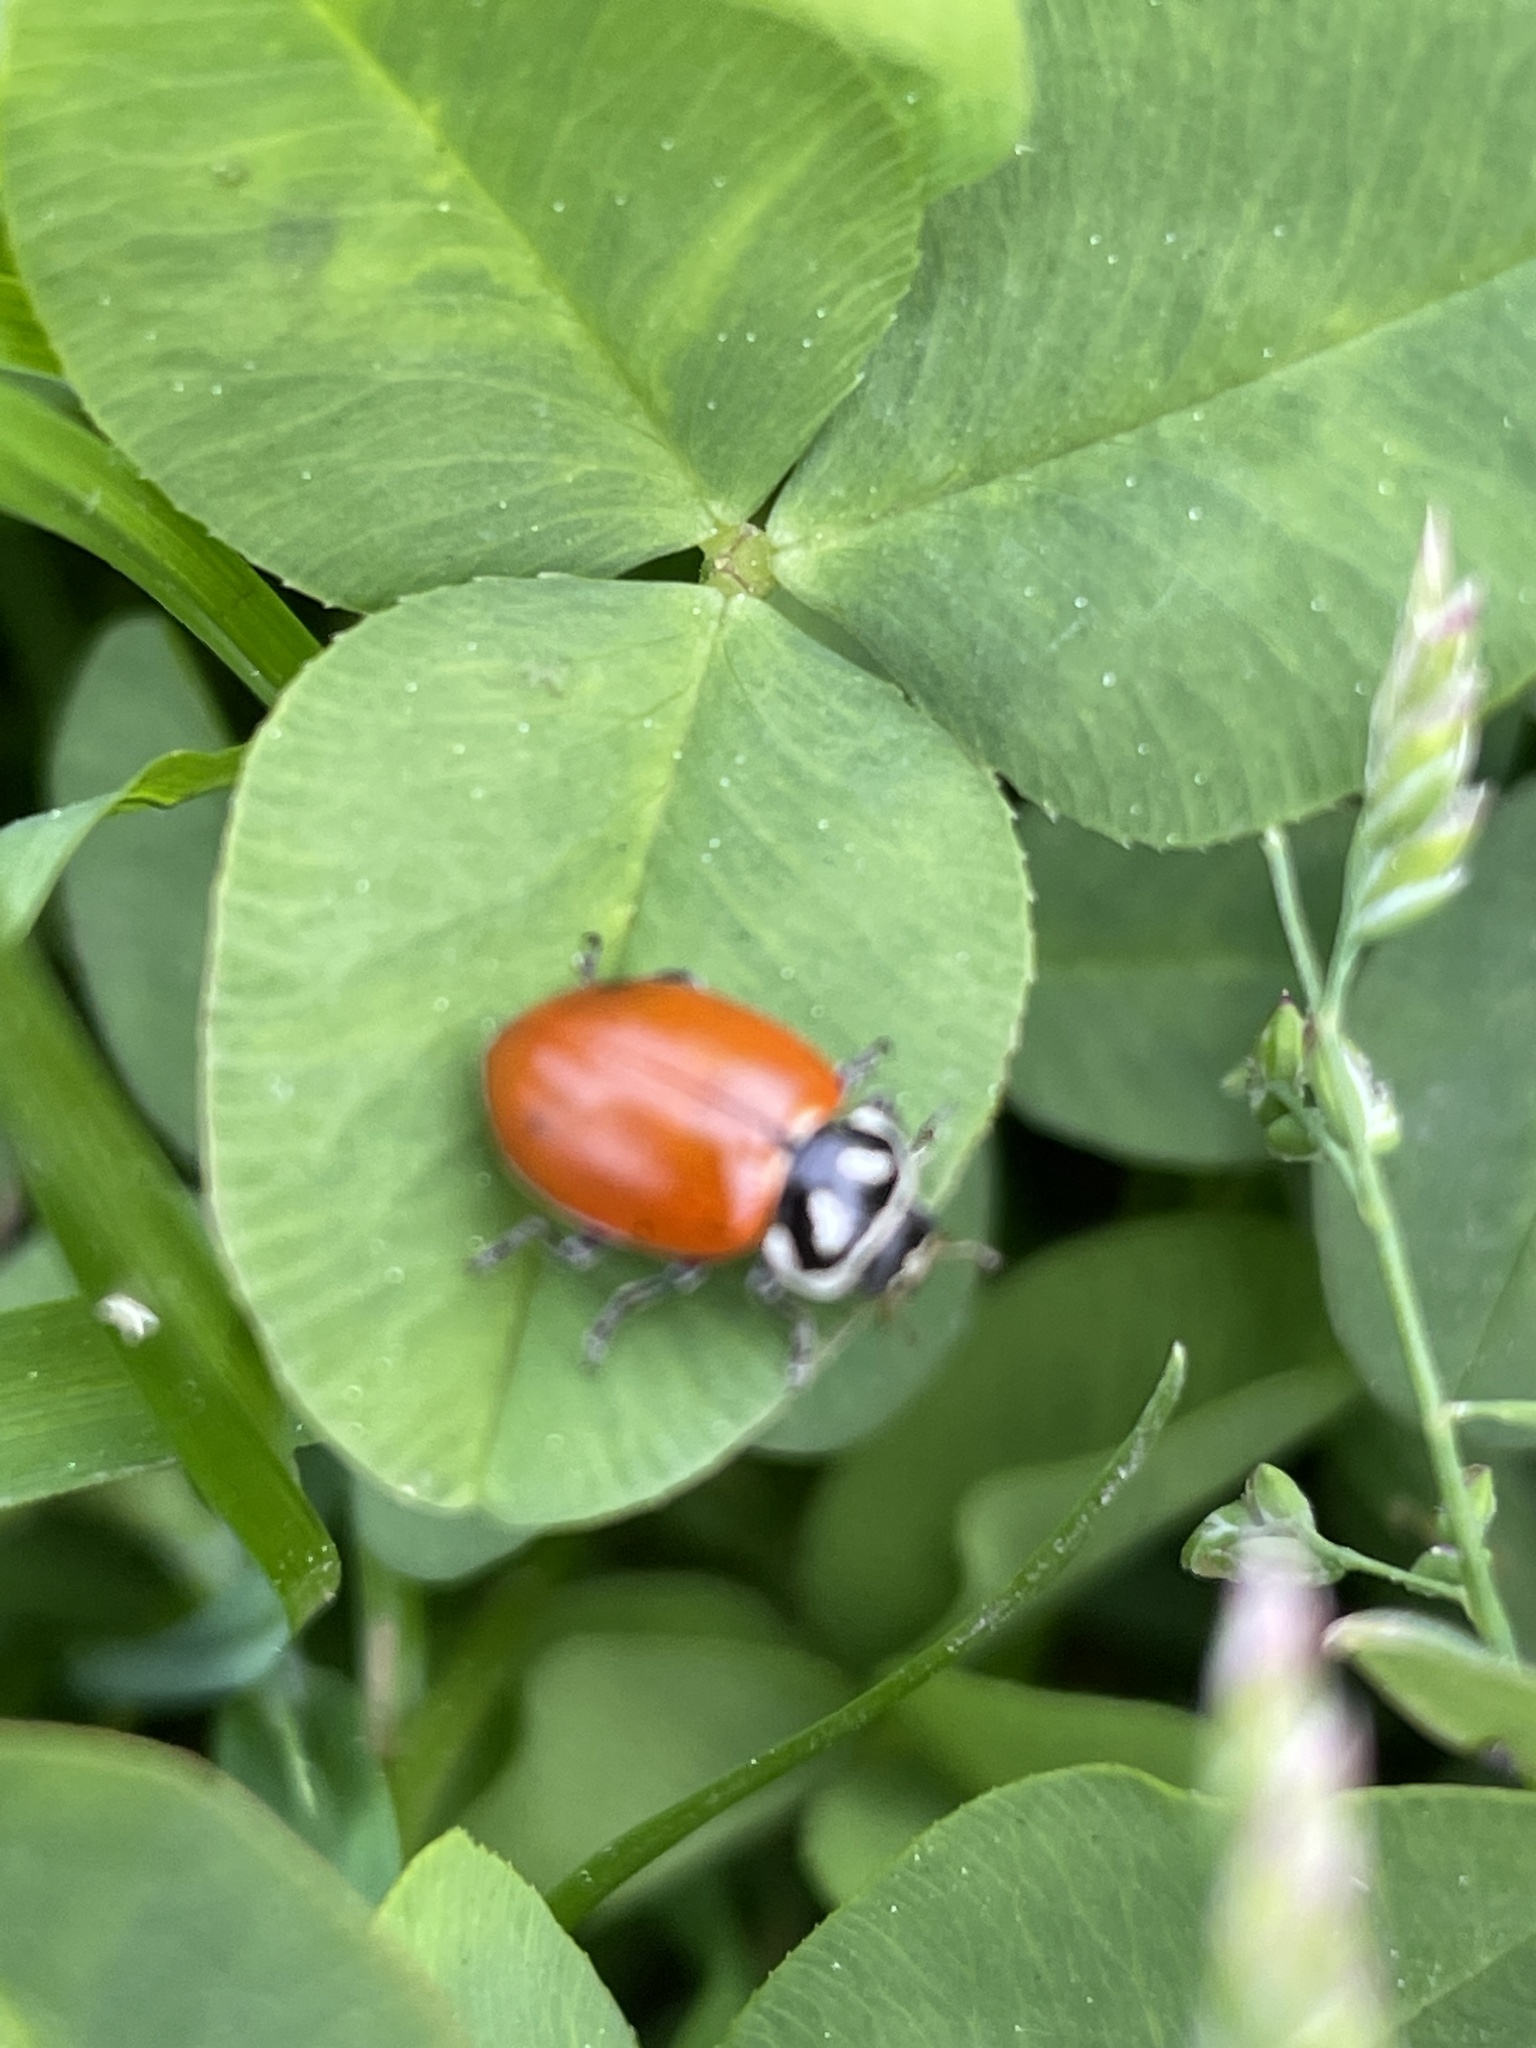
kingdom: Animalia
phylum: Arthropoda
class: Insecta
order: Coleoptera
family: Coccinellidae
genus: Hippodamia
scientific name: Hippodamia convergens
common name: Convergent lady beetle
